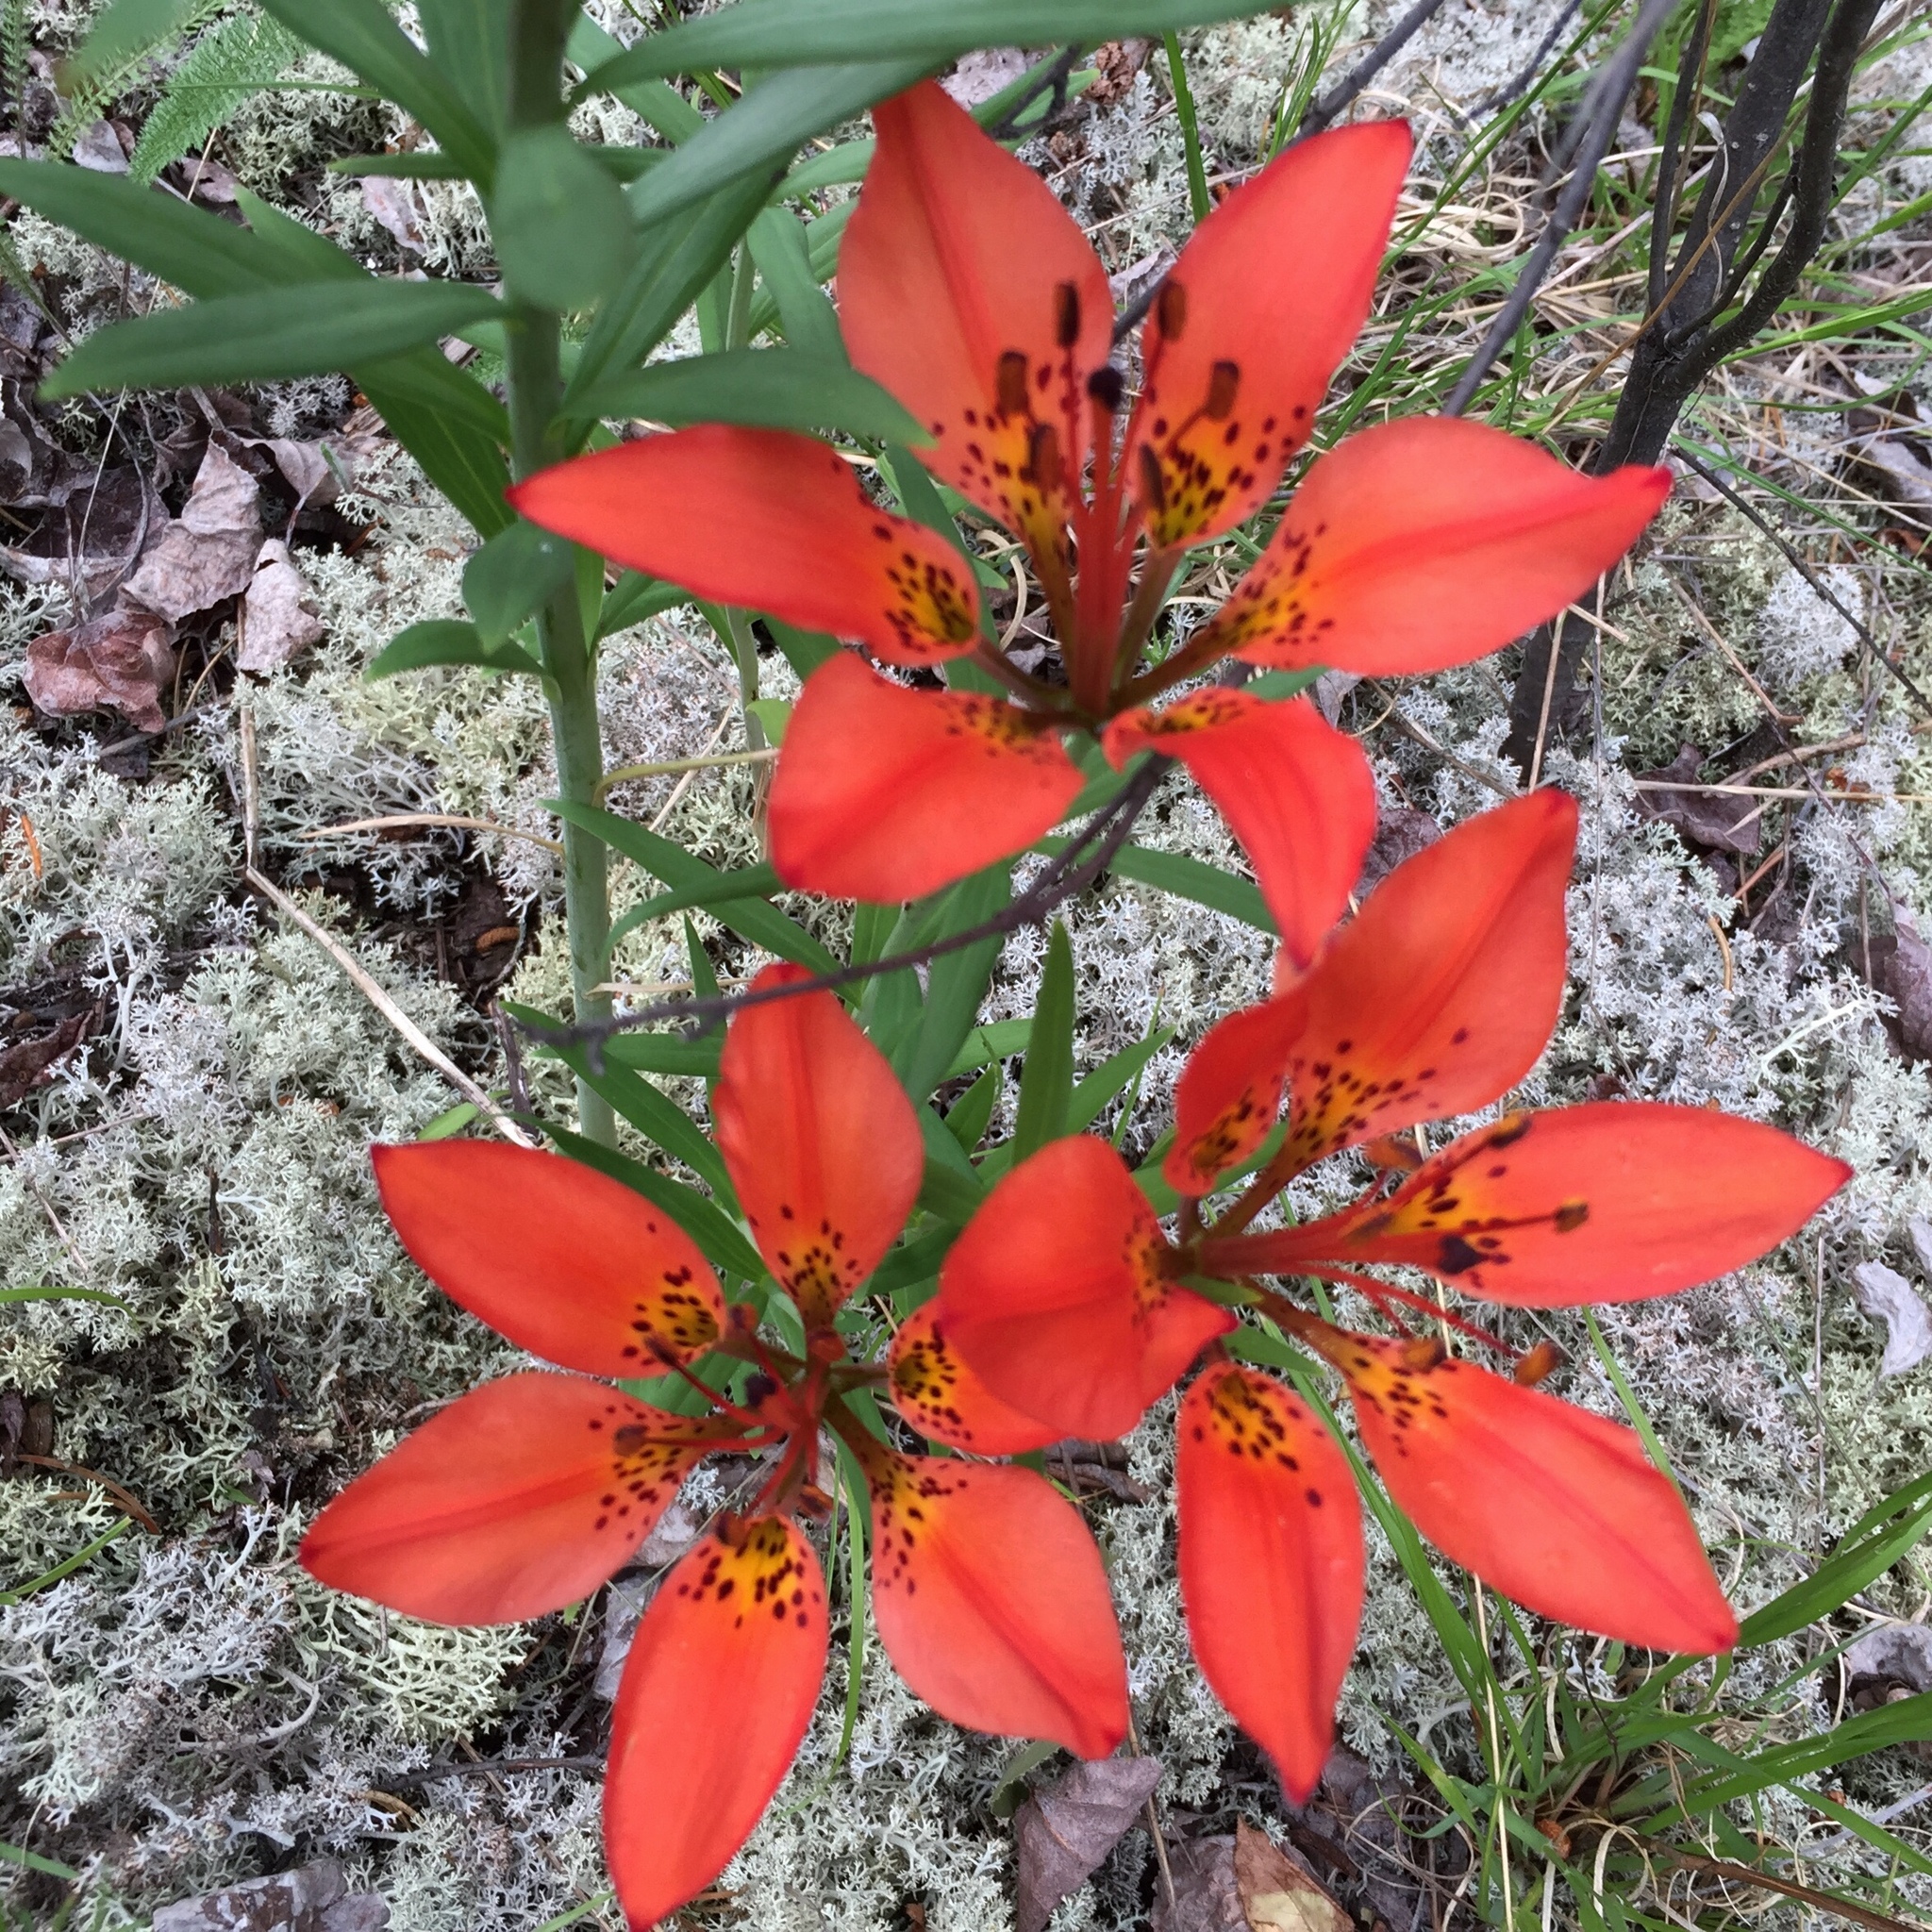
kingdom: Plantae
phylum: Tracheophyta
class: Liliopsida
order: Liliales
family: Liliaceae
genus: Lilium
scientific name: Lilium philadelphicum
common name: Red lily
